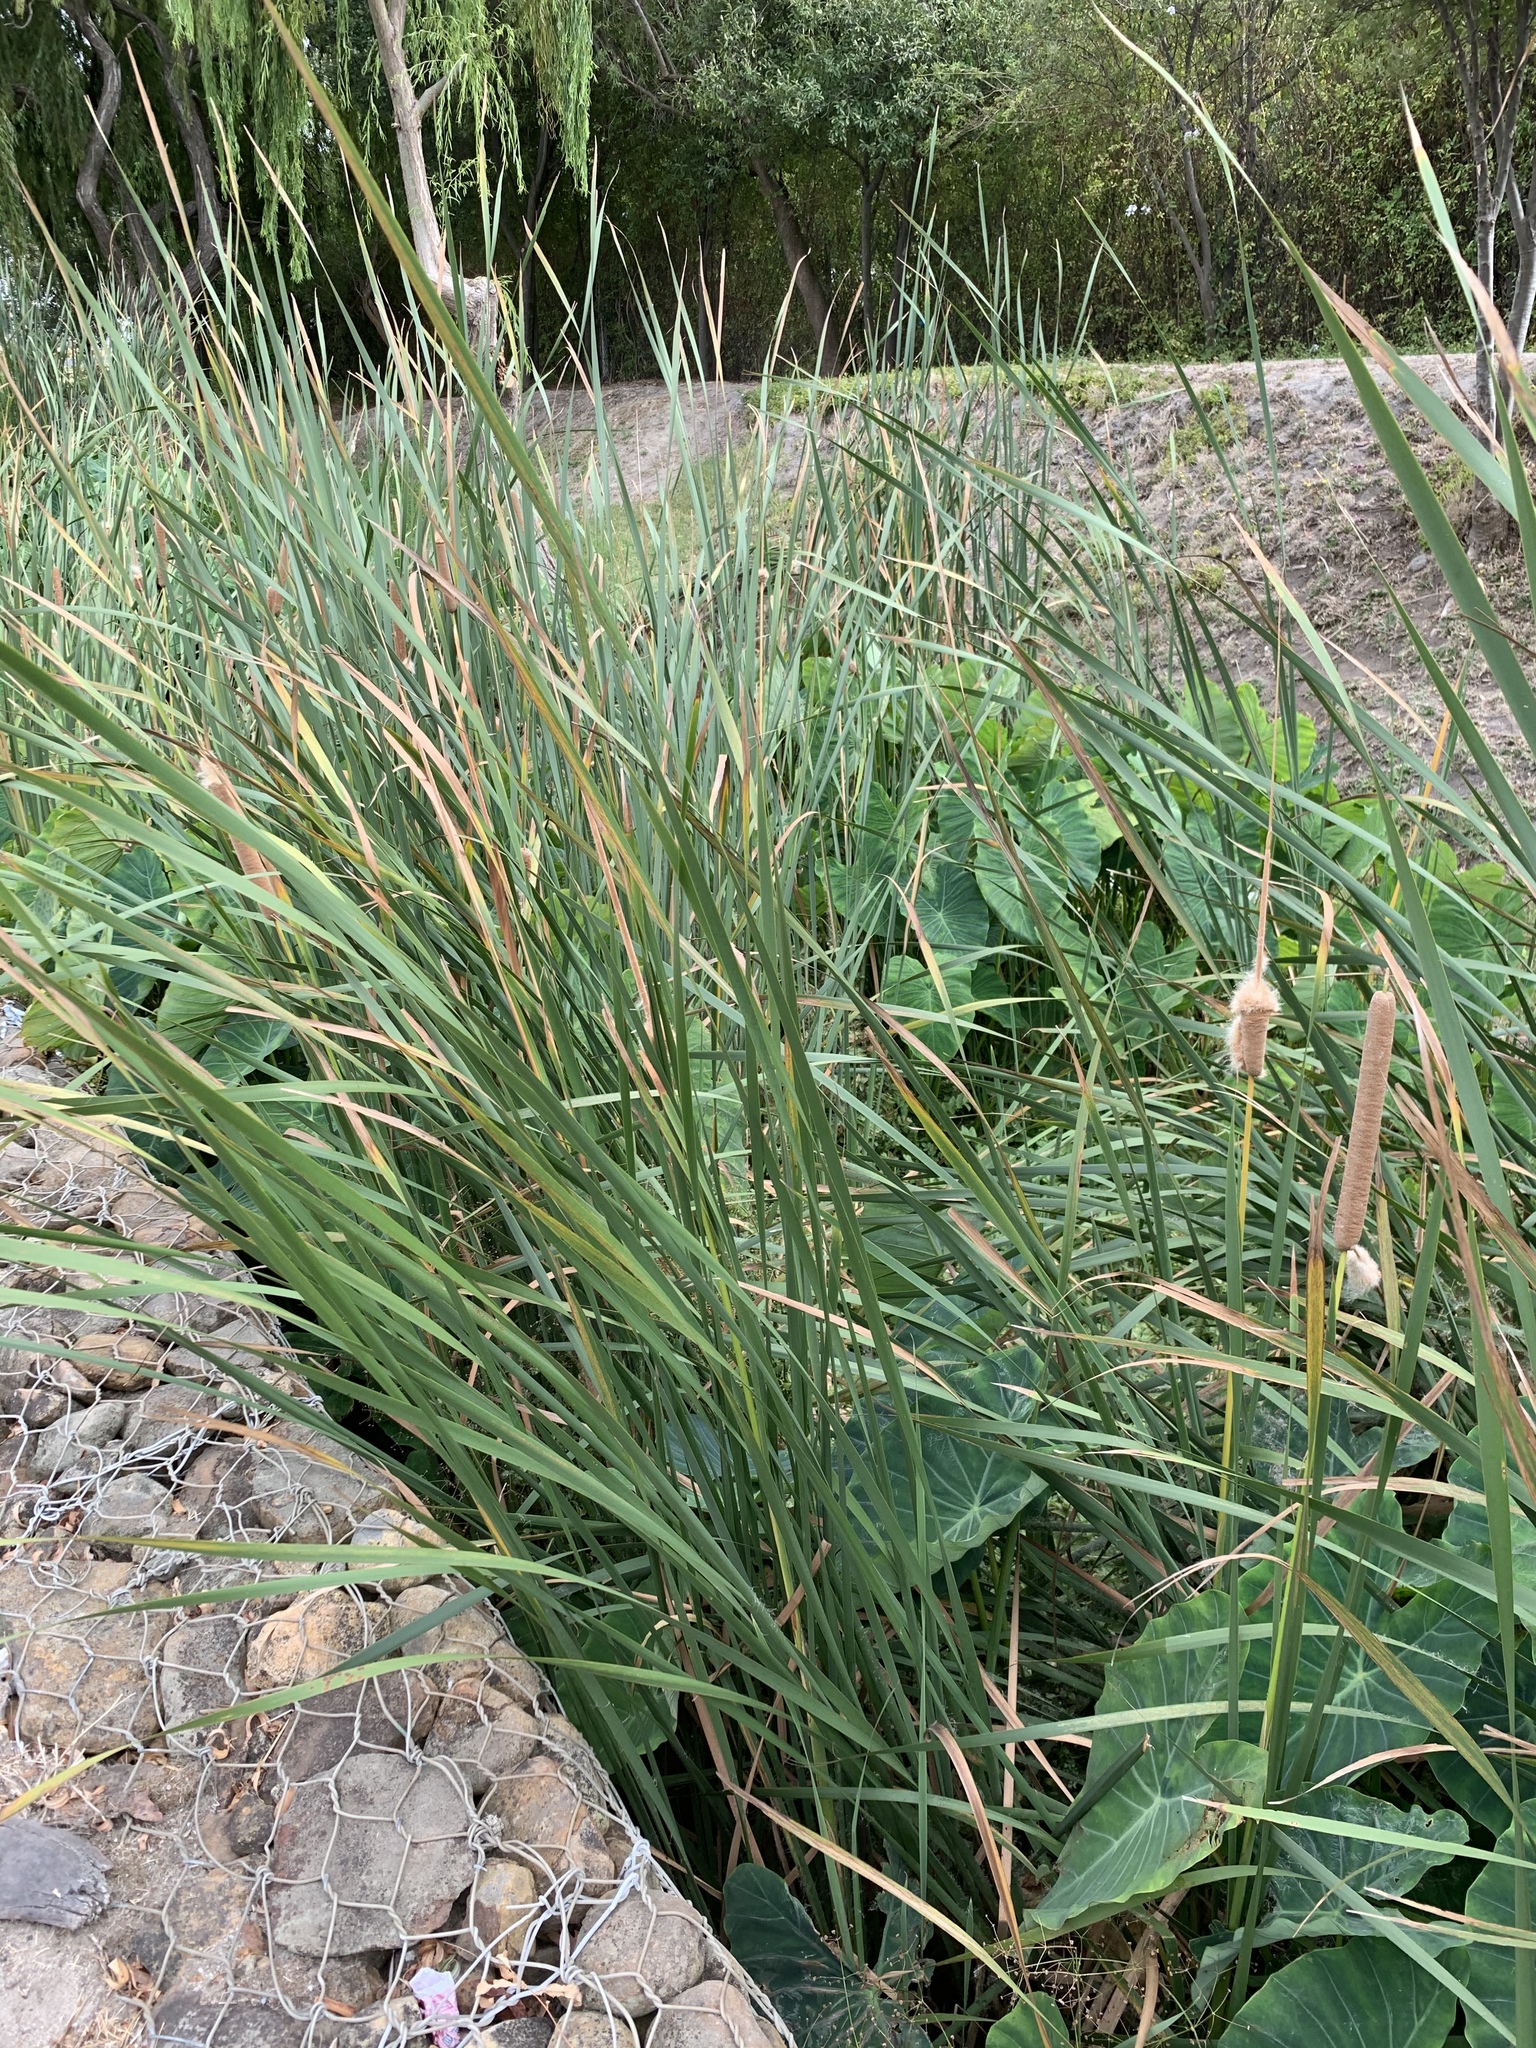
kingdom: Plantae
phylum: Tracheophyta
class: Liliopsida
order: Poales
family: Typhaceae
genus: Typha
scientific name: Typha capensis
